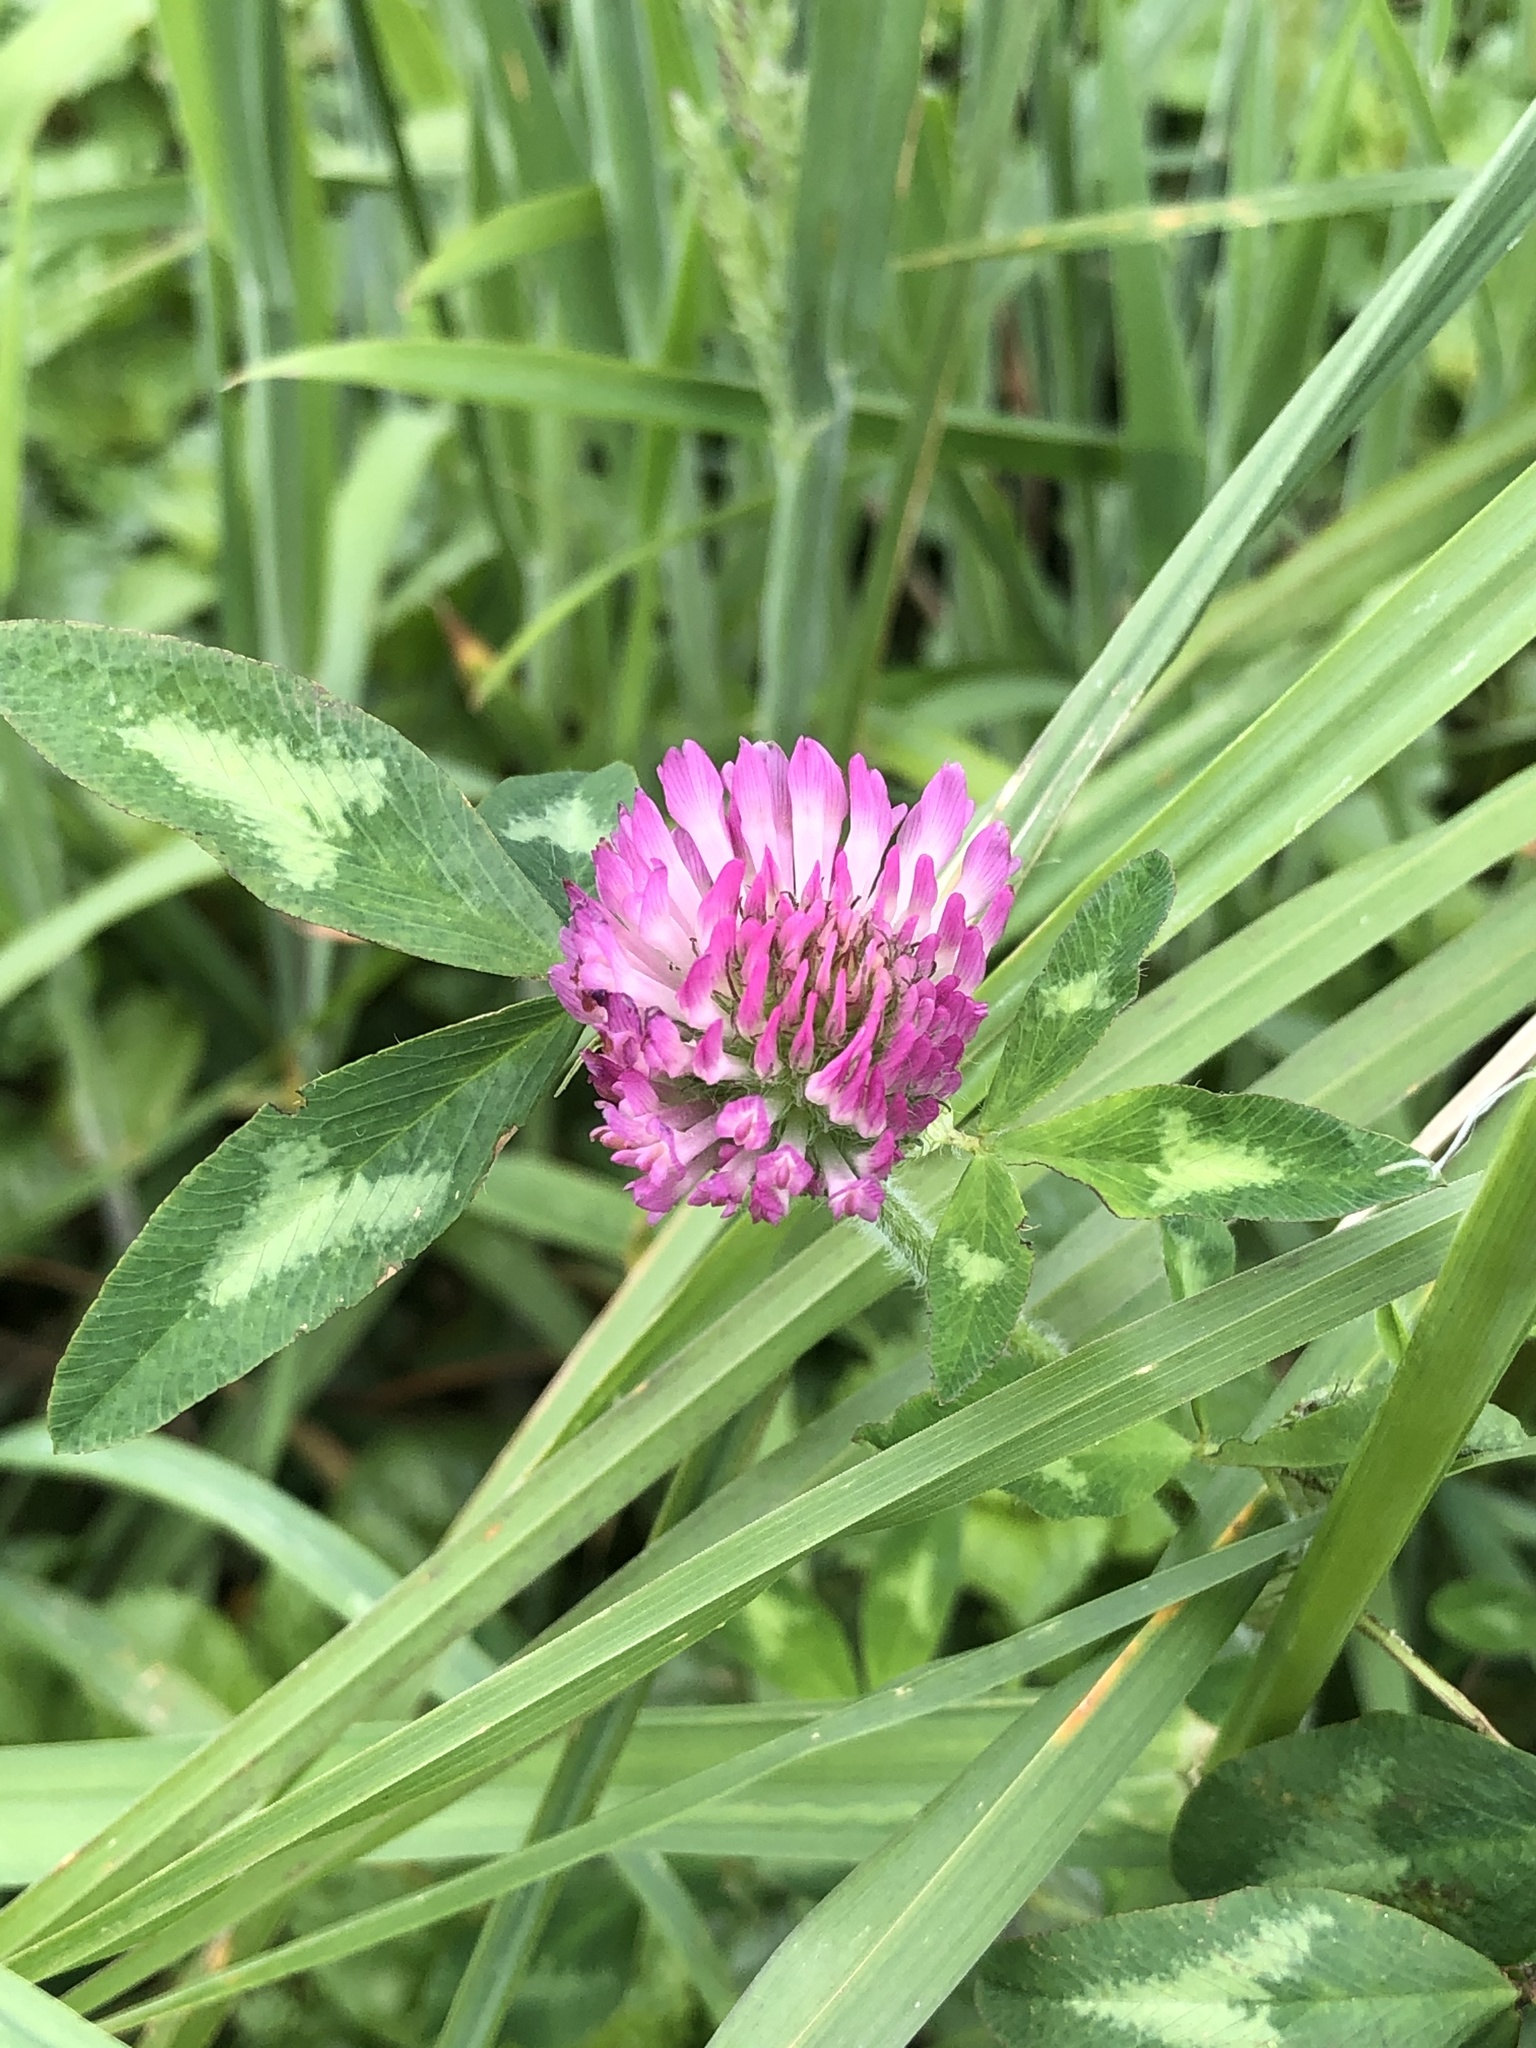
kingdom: Plantae
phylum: Tracheophyta
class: Magnoliopsida
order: Fabales
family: Fabaceae
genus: Trifolium
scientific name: Trifolium pratense
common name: Red clover
